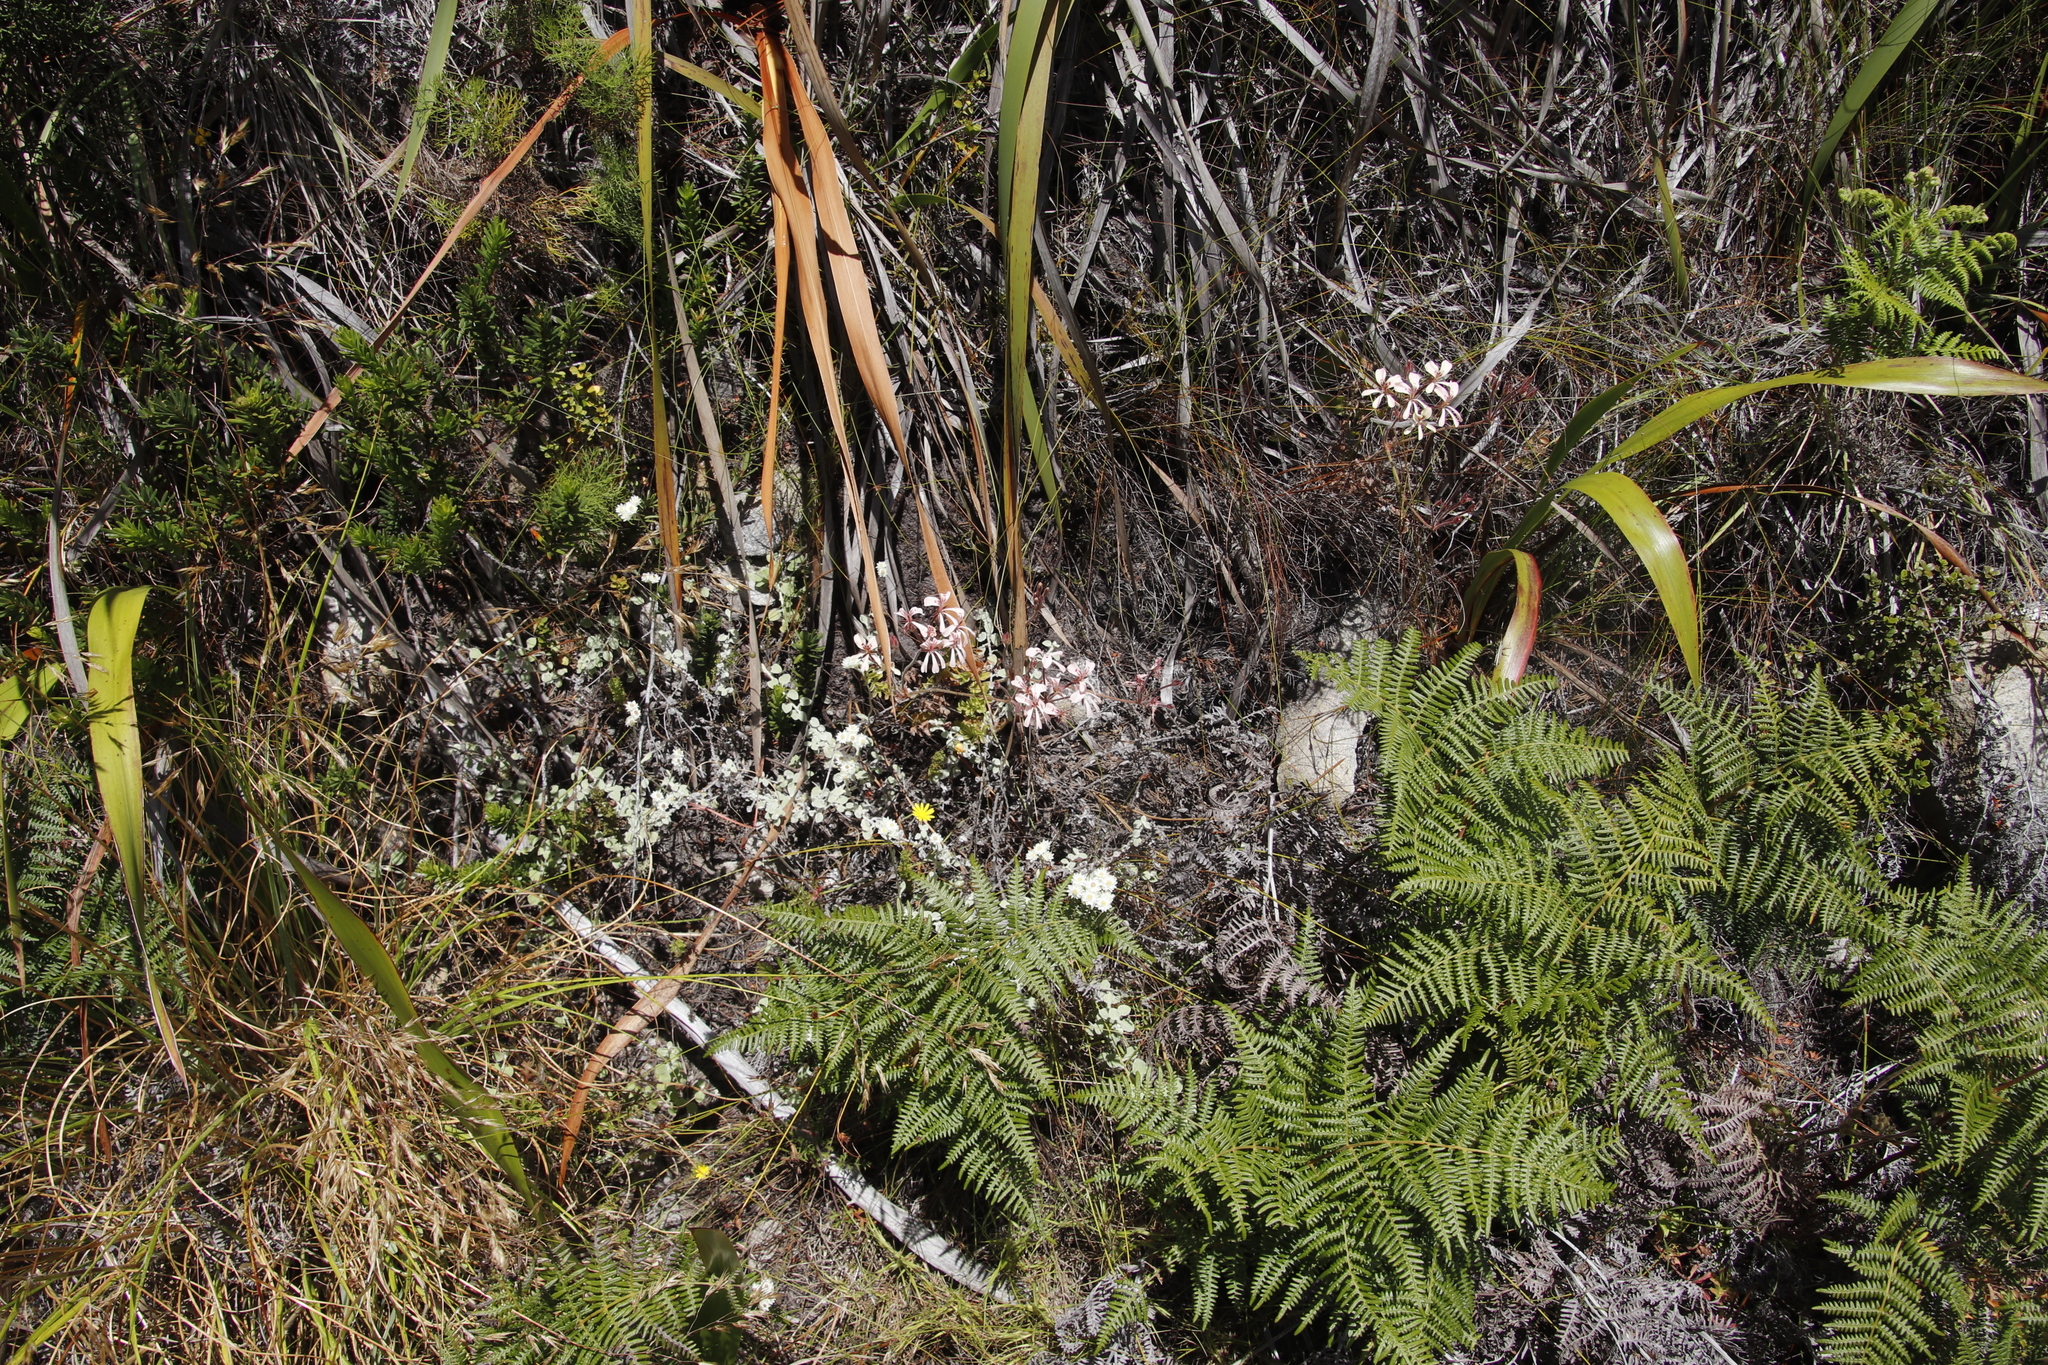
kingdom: Plantae
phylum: Tracheophyta
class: Magnoliopsida
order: Geraniales
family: Geraniaceae
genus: Pelargonium
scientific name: Pelargonium pinnatum
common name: Pinnated pelargonium
